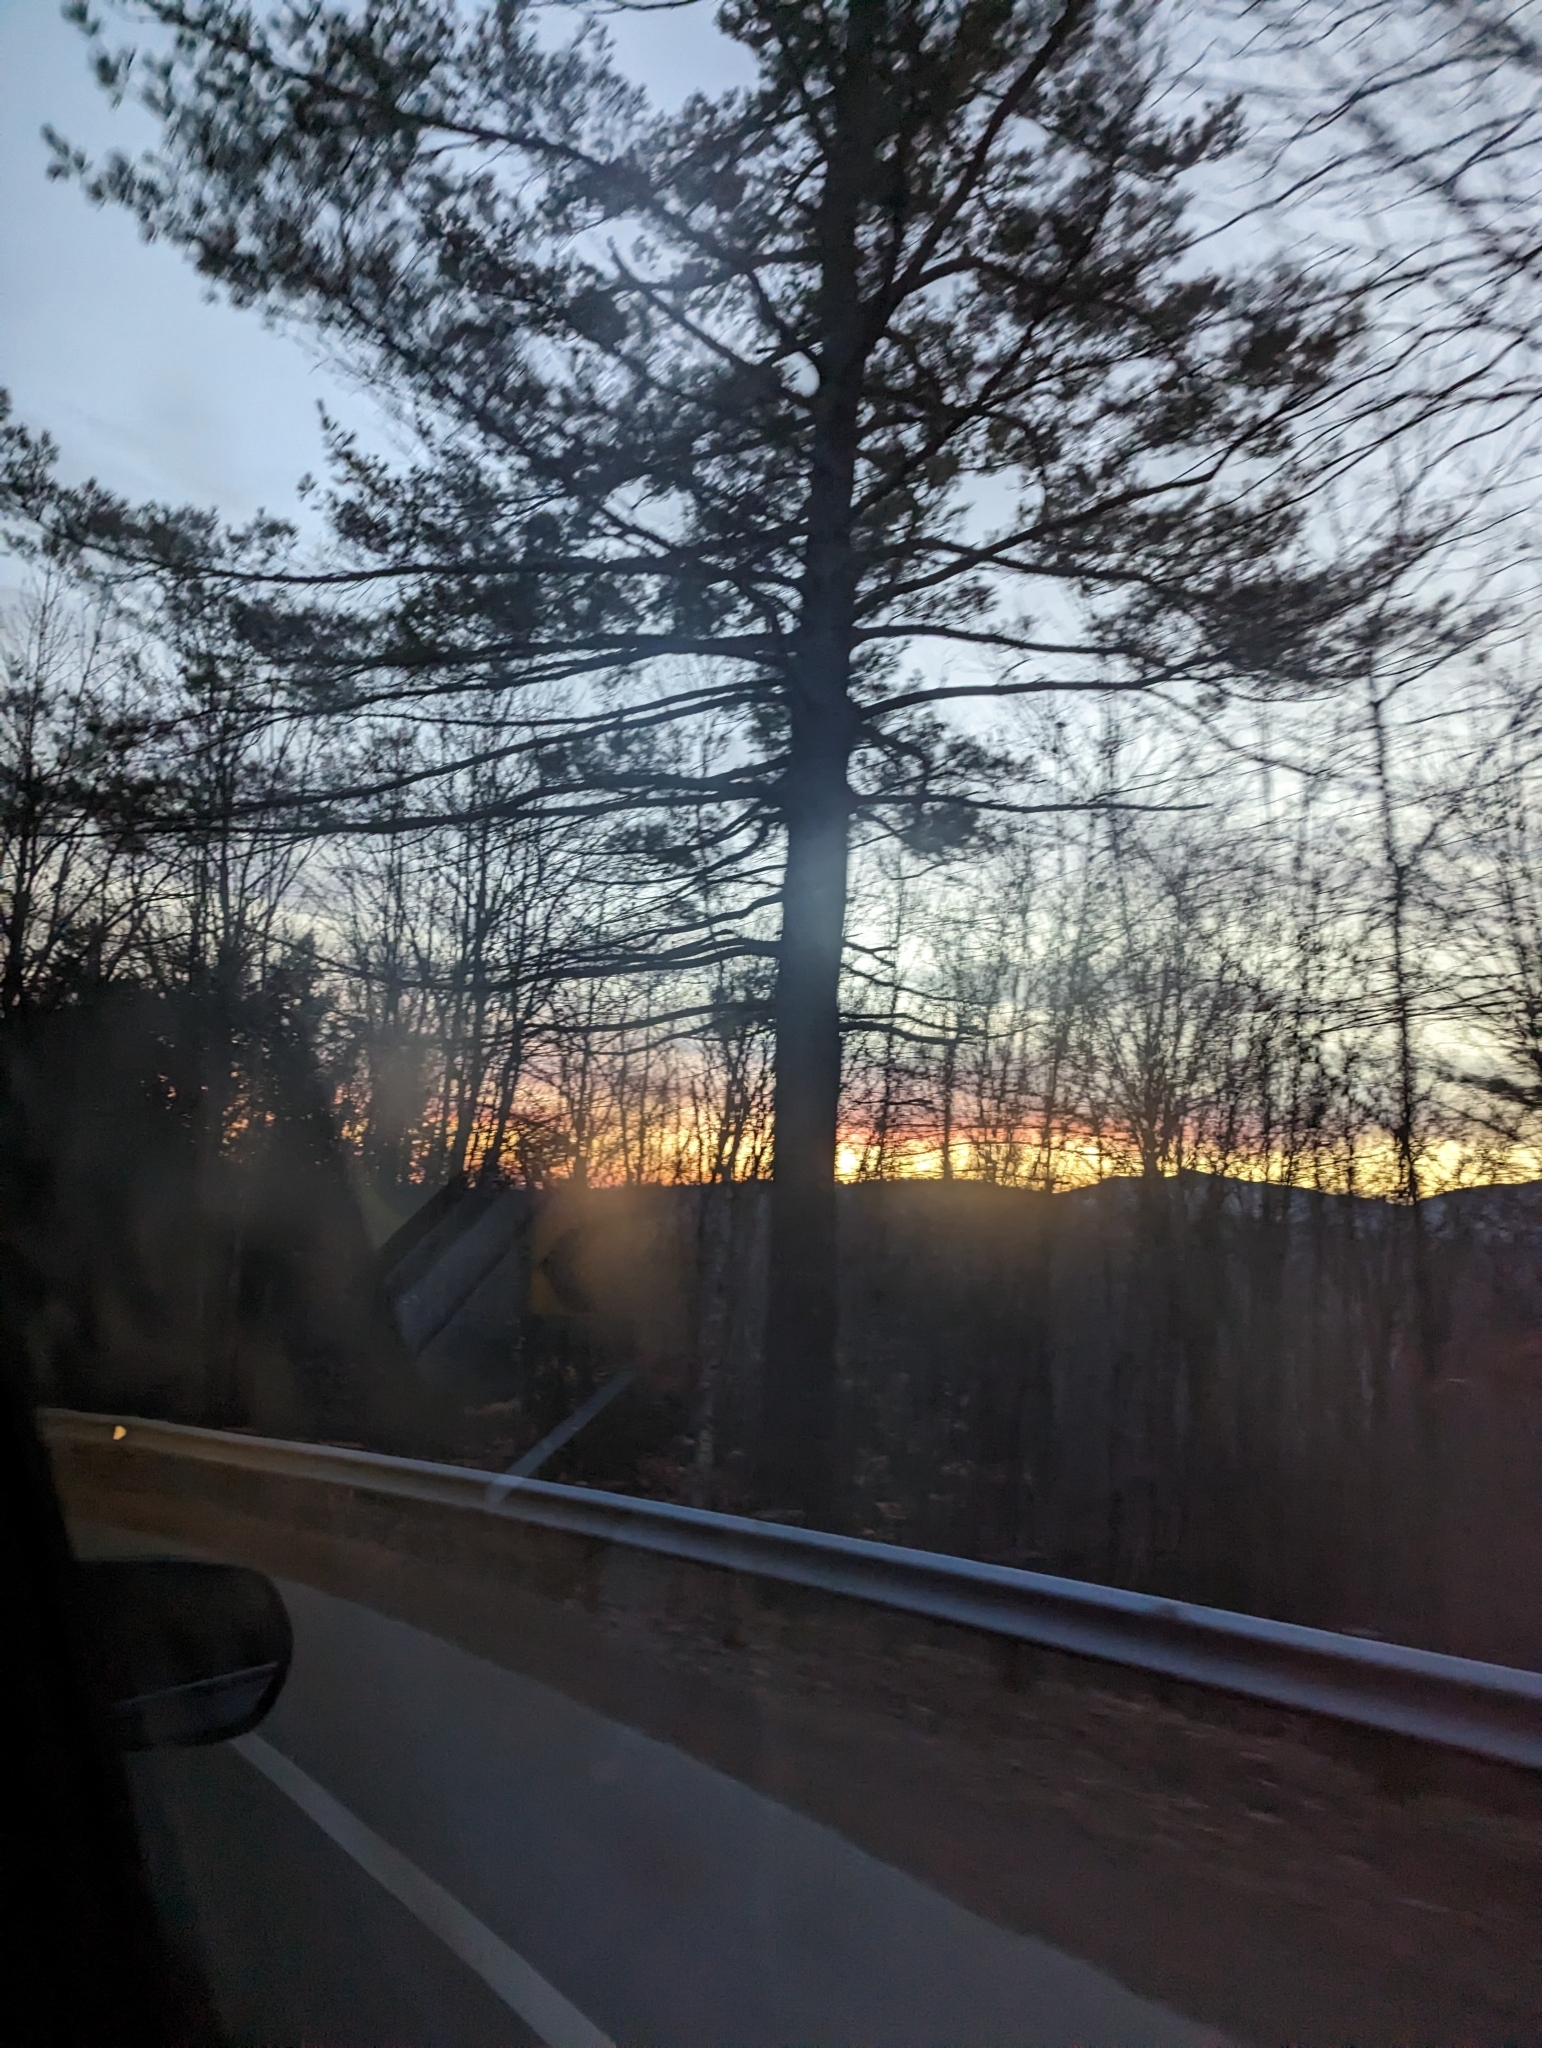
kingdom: Plantae
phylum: Tracheophyta
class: Pinopsida
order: Pinales
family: Pinaceae
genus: Pinus
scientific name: Pinus strobus
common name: Weymouth pine
